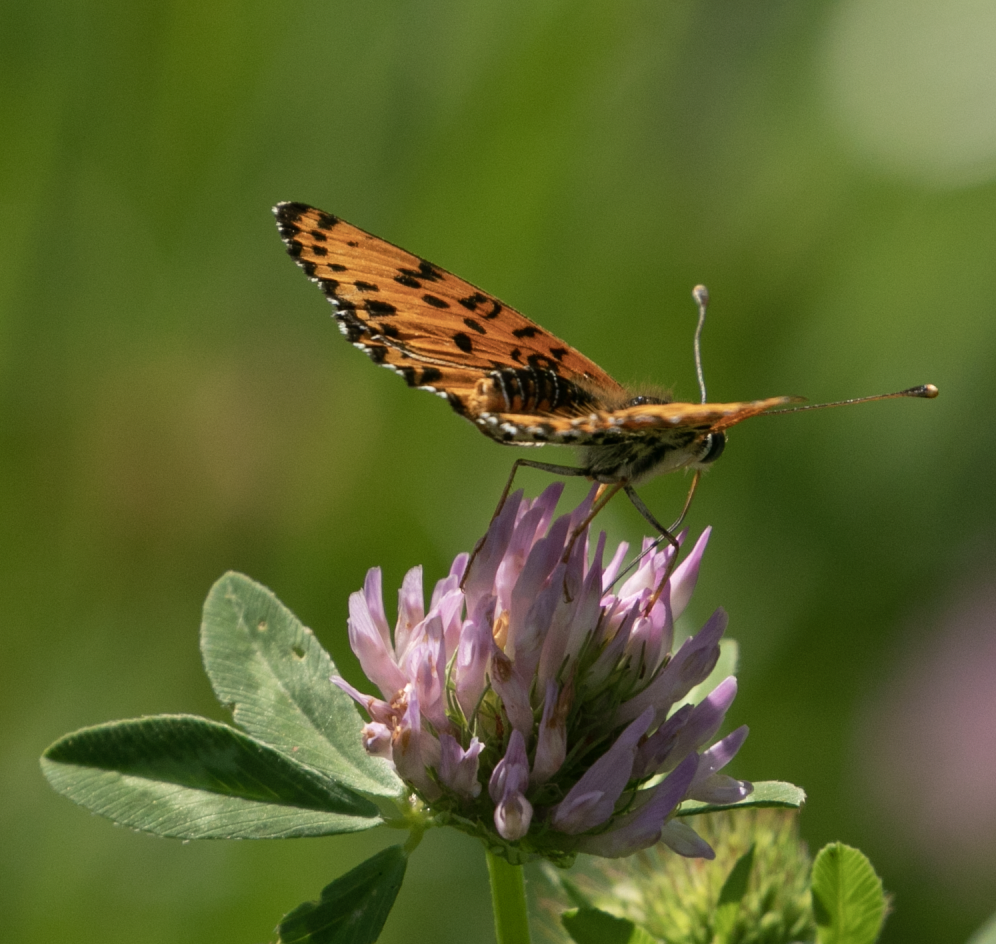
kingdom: Animalia
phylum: Arthropoda
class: Insecta
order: Lepidoptera
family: Nymphalidae
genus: Melitaea
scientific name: Melitaea didyma
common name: Spotted fritillary
